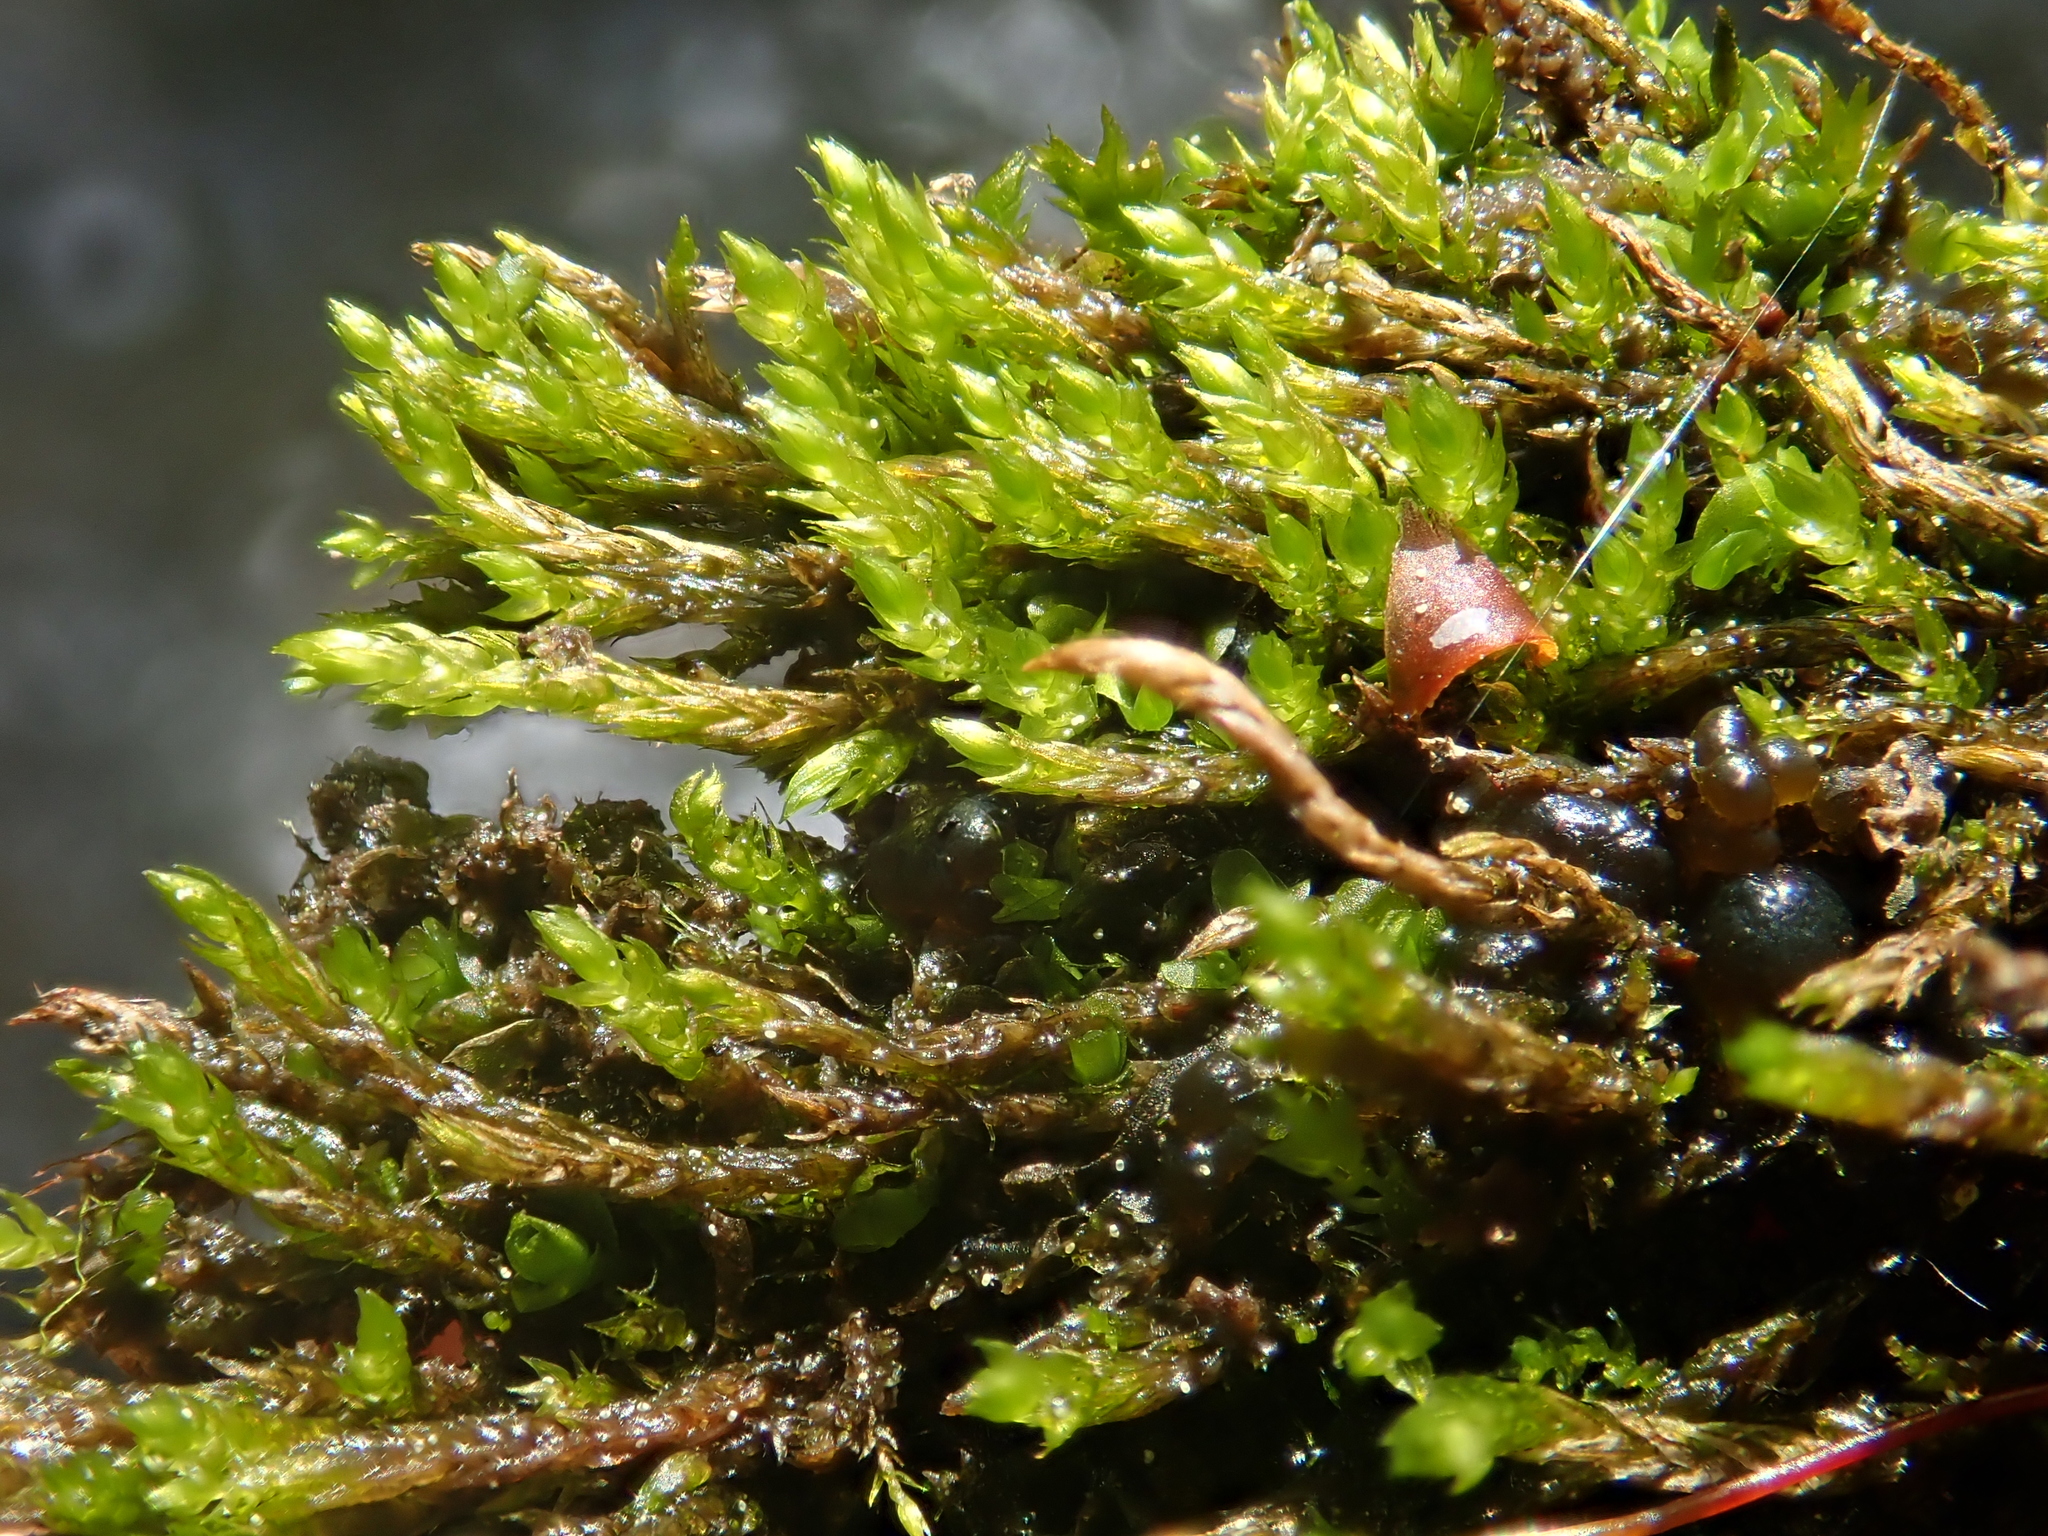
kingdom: Plantae
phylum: Bryophyta
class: Bryopsida
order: Hypnales
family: Amblystegiaceae
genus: Hygroamblystegium
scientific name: Hygroamblystegium tenax
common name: Fountain feather-moss
